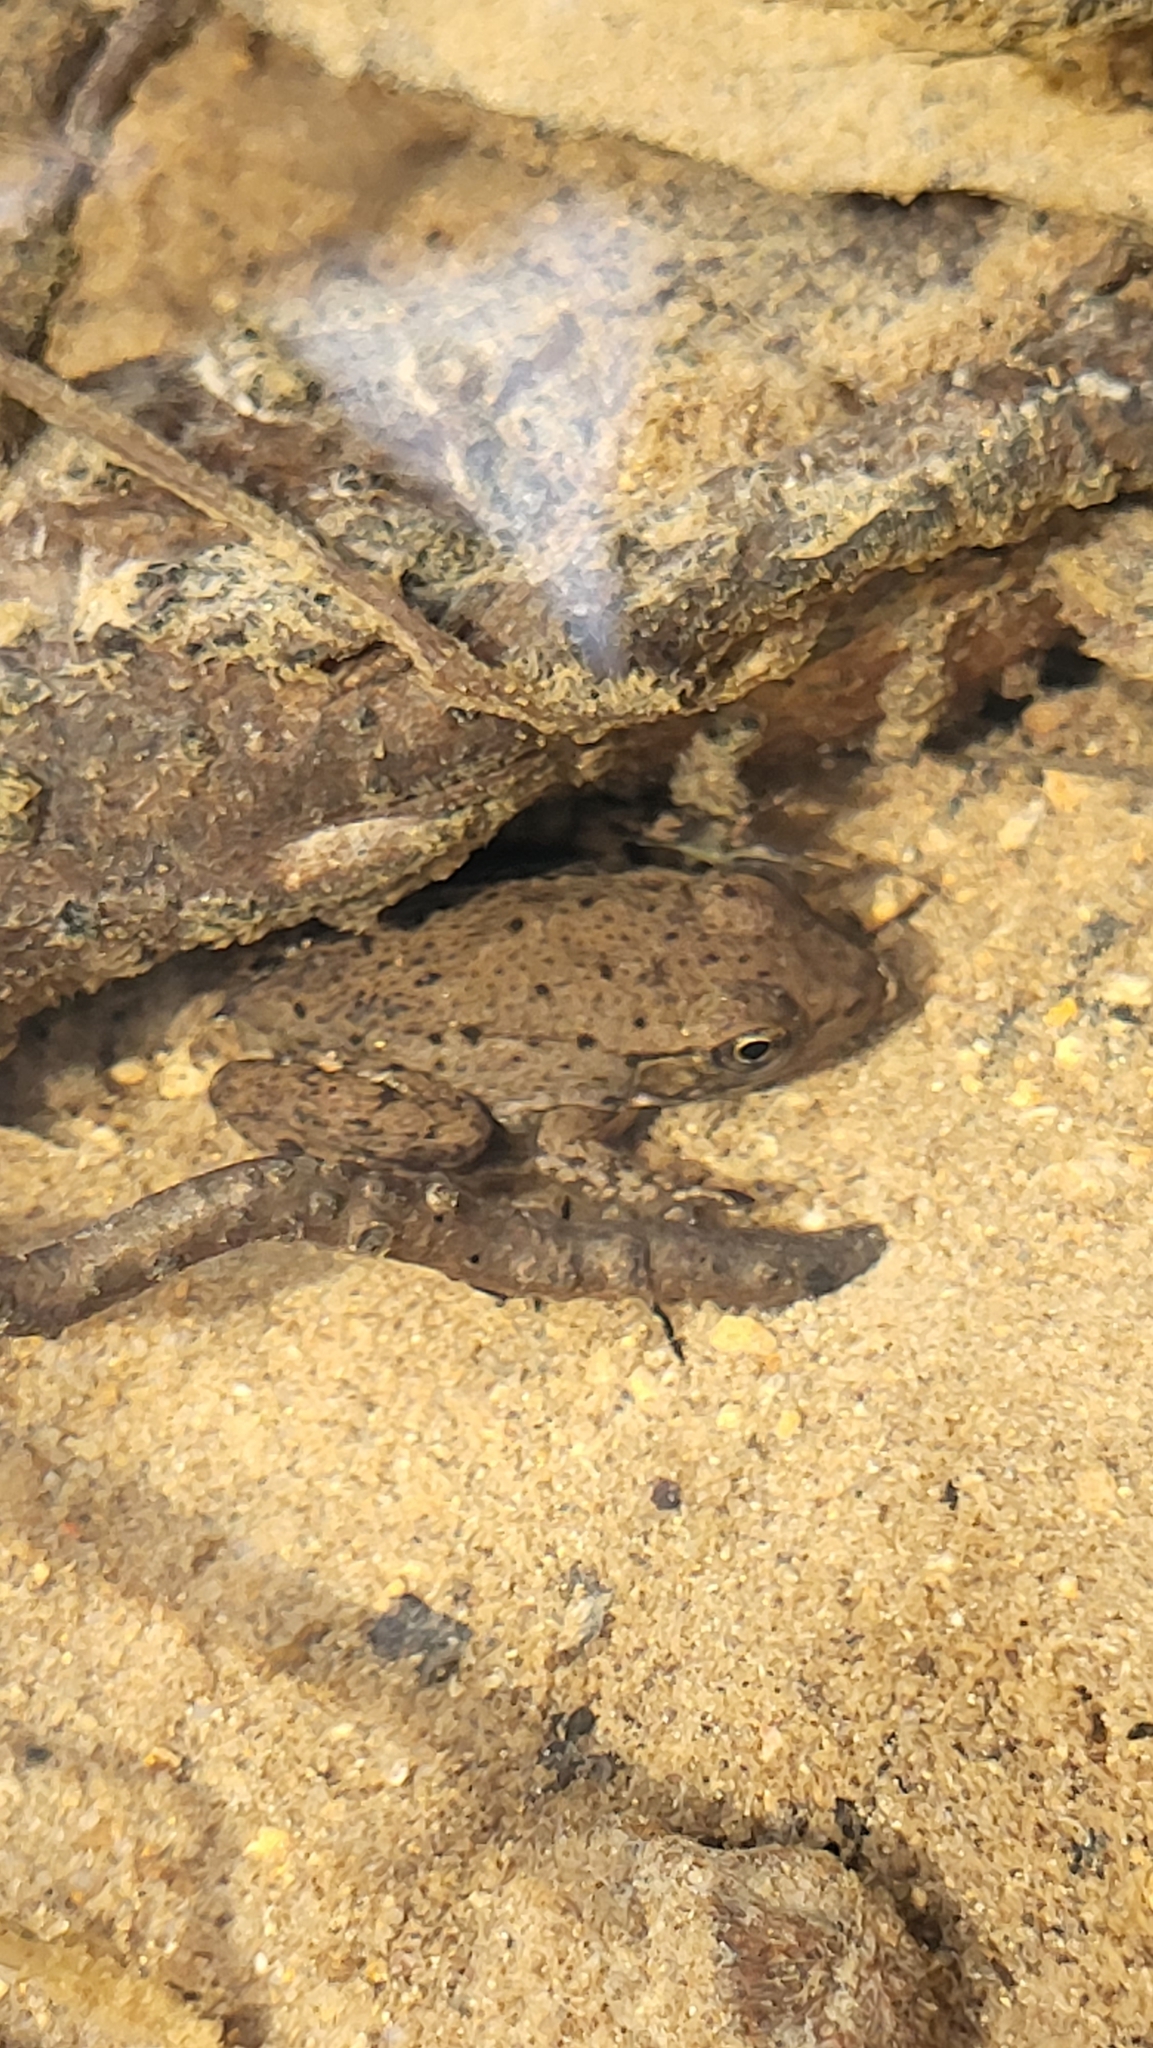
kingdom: Animalia
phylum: Chordata
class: Amphibia
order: Anura
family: Ranidae
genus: Lithobates
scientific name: Lithobates clamitans
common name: Green frog
